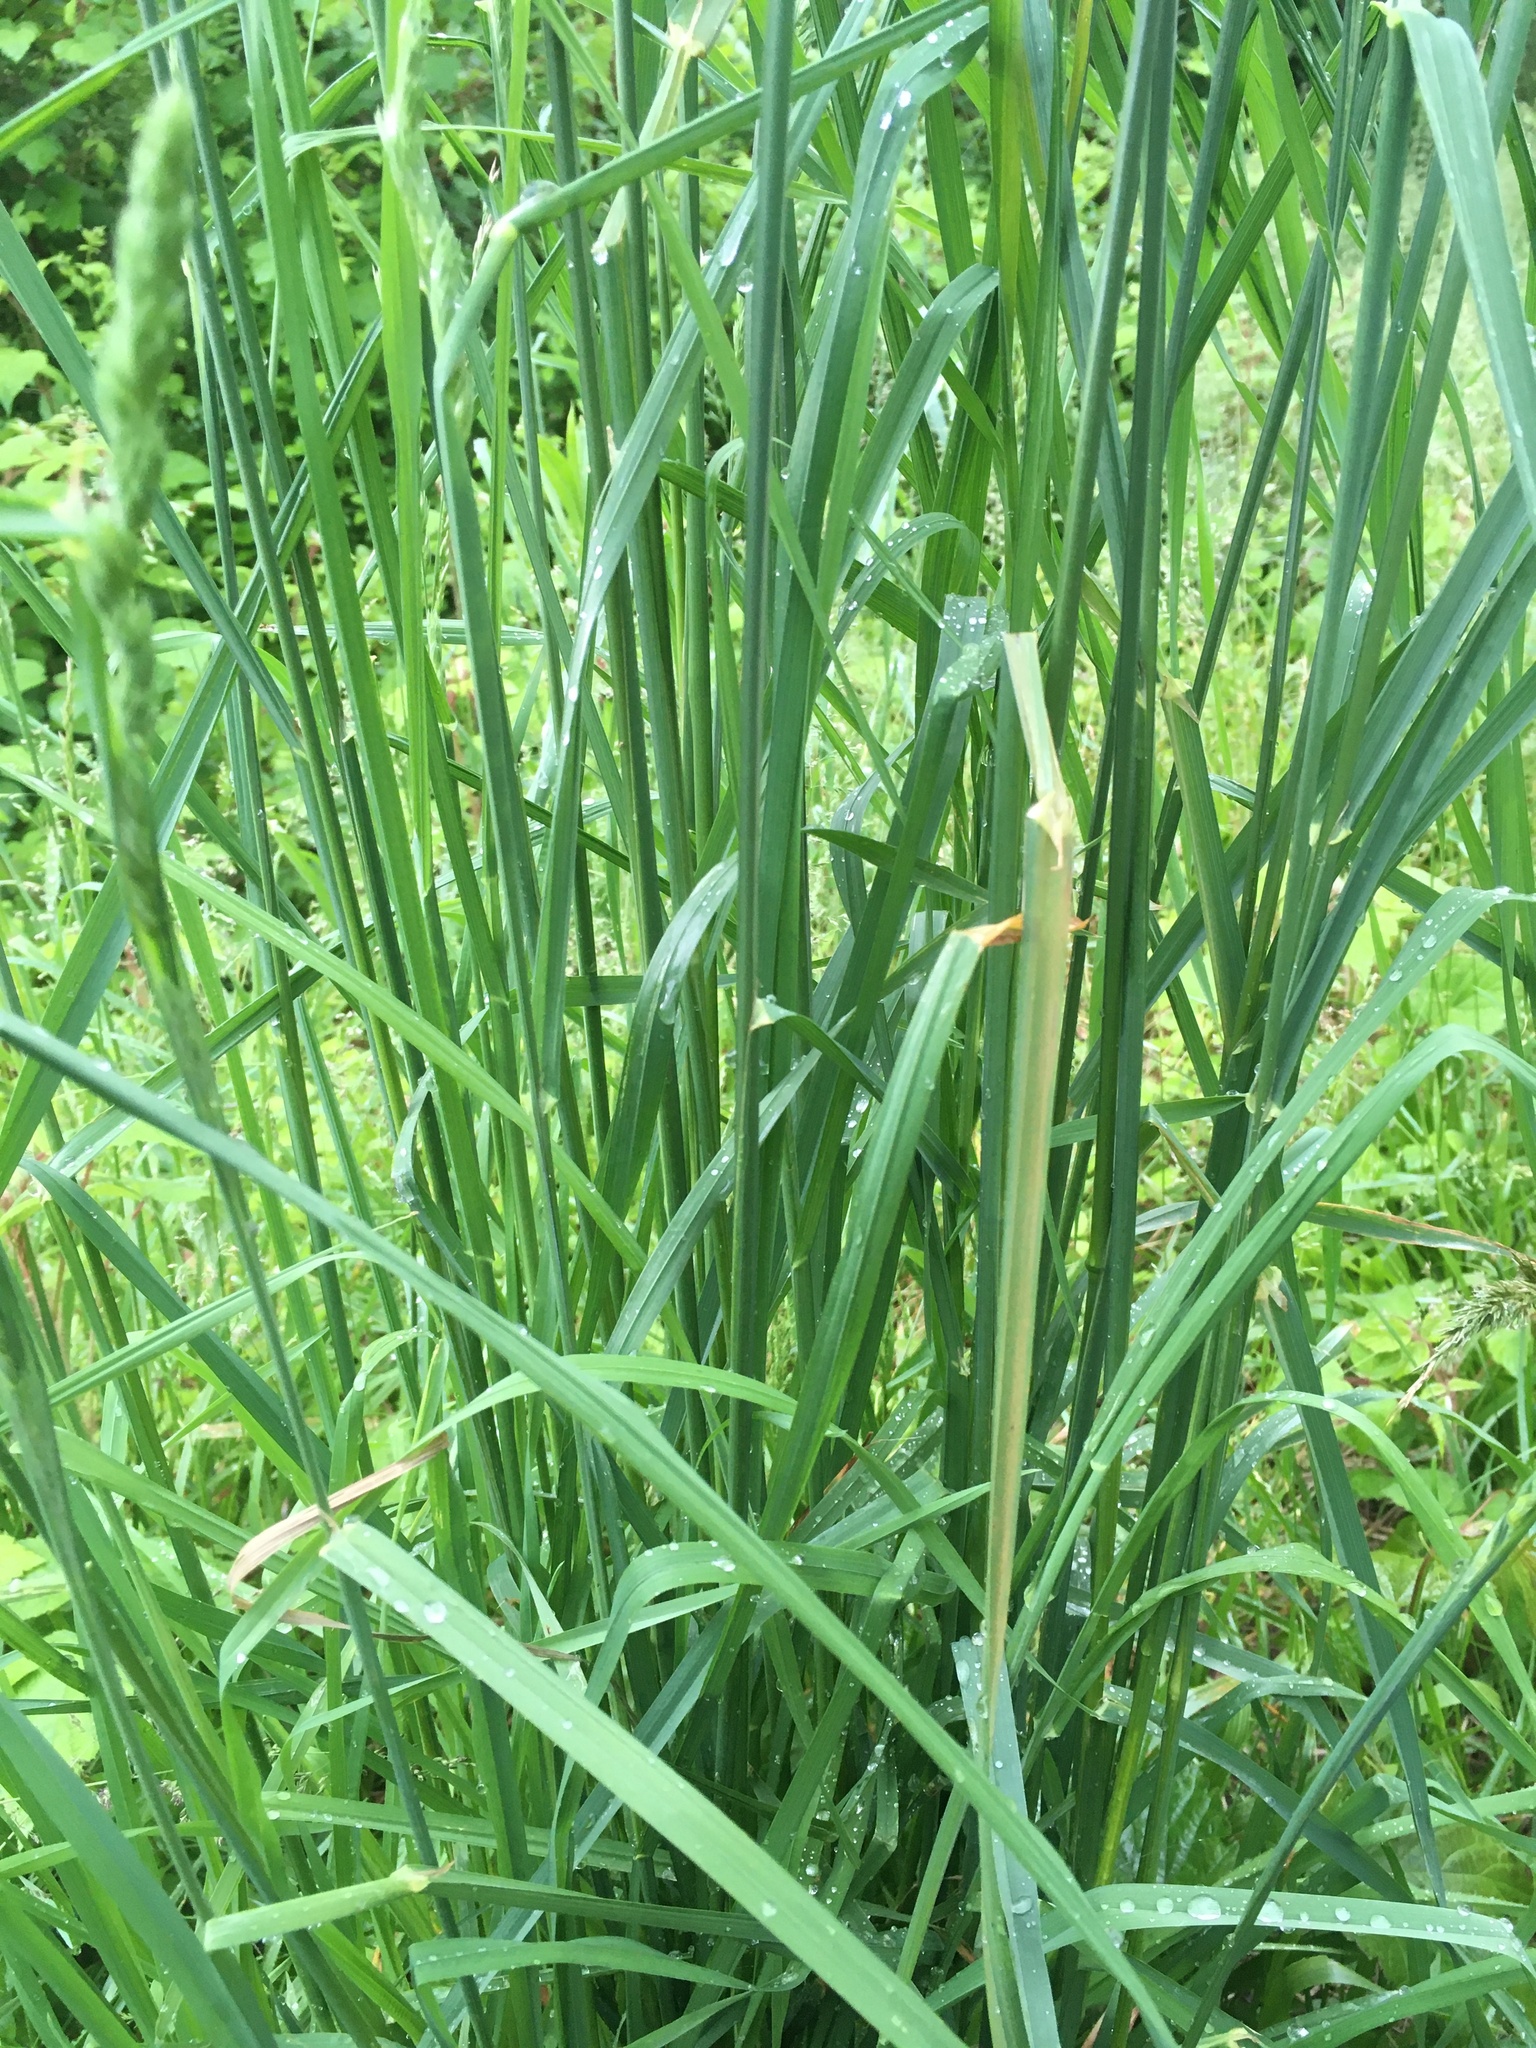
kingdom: Plantae
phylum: Tracheophyta
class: Liliopsida
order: Poales
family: Poaceae
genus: Dactylis
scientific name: Dactylis glomerata
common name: Orchardgrass
